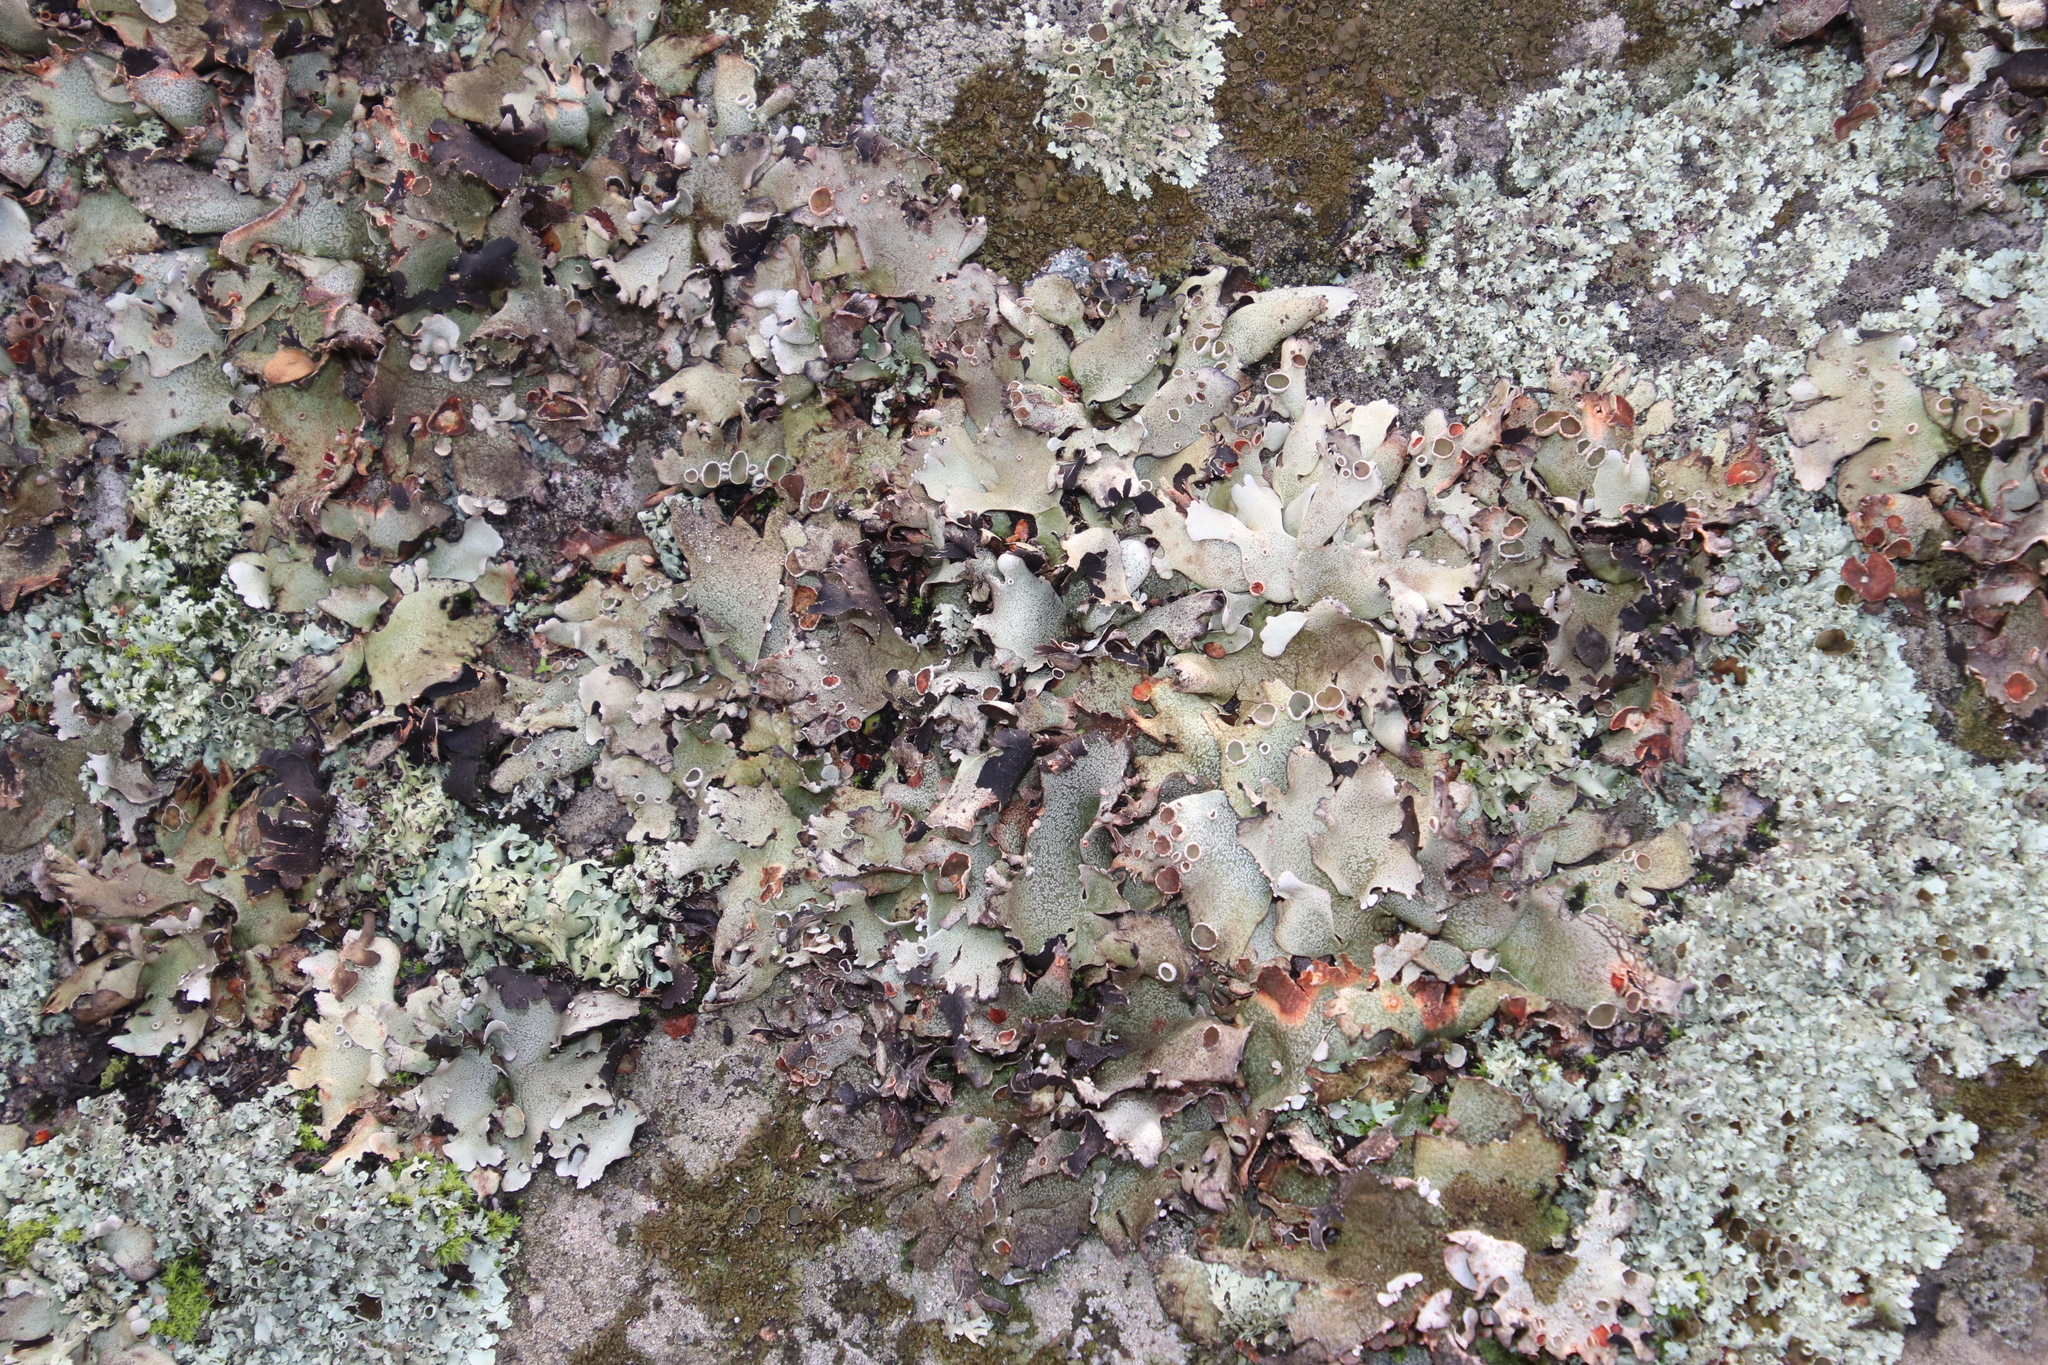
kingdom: Fungi
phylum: Ascomycota
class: Lecanoromycetes
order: Lecanorales
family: Parmeliaceae
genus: Xanthoparmelia
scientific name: Xanthoparmelia frondosa
